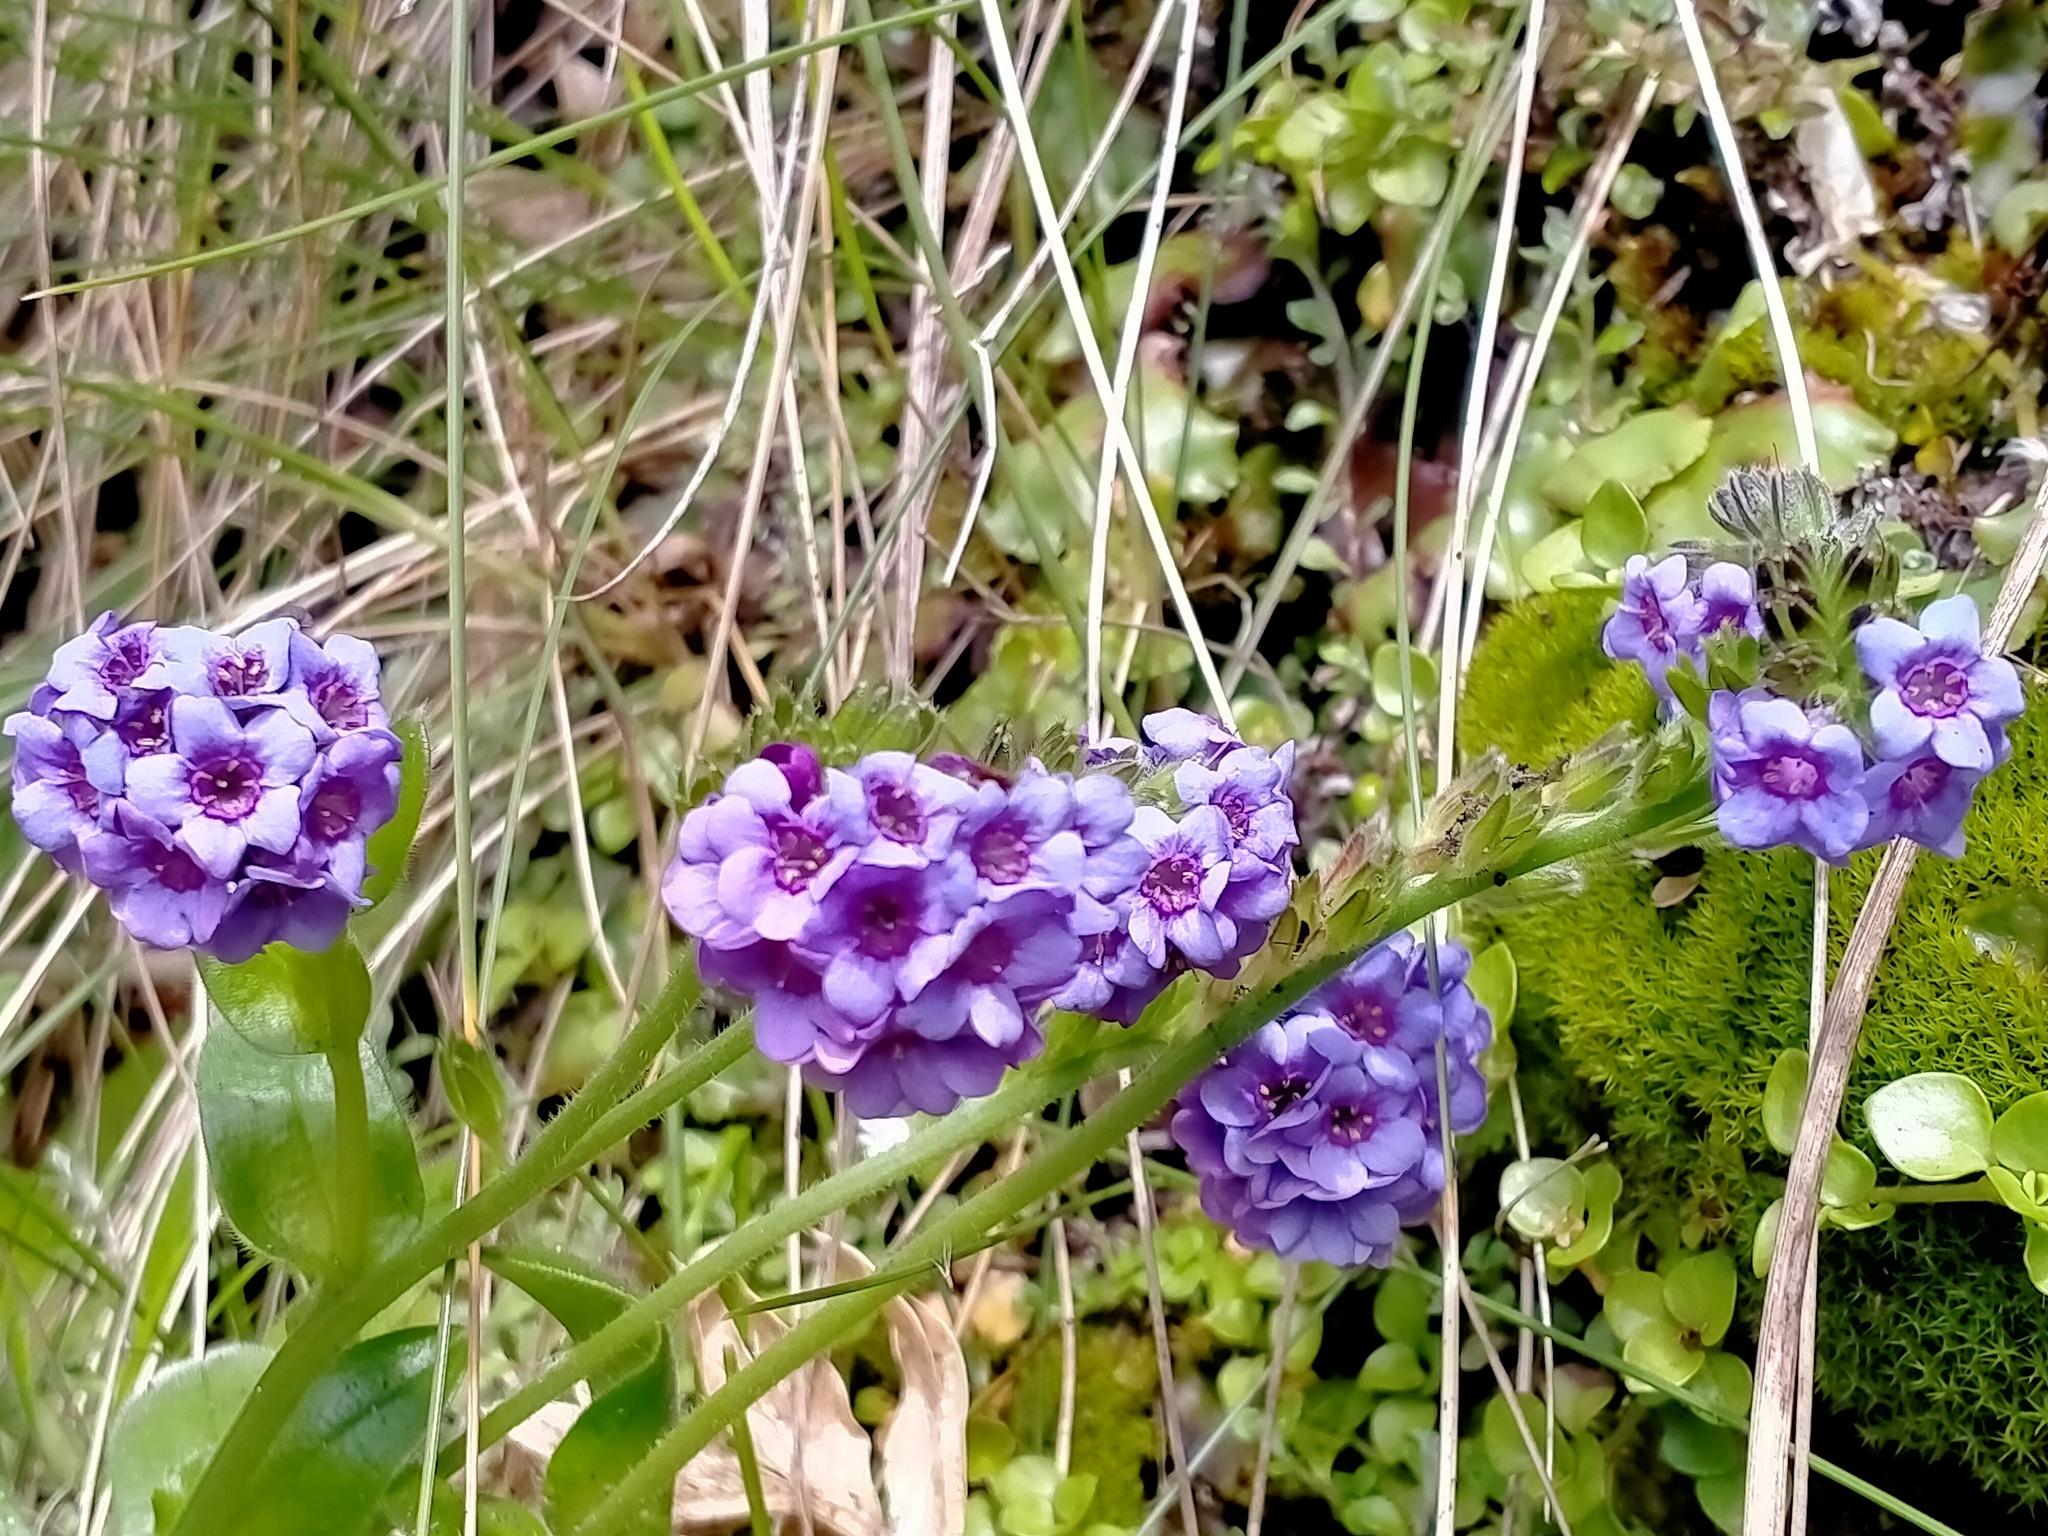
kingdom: Plantae
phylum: Tracheophyta
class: Magnoliopsida
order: Boraginales
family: Boraginaceae
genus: Myosotis
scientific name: Myosotis capitata
